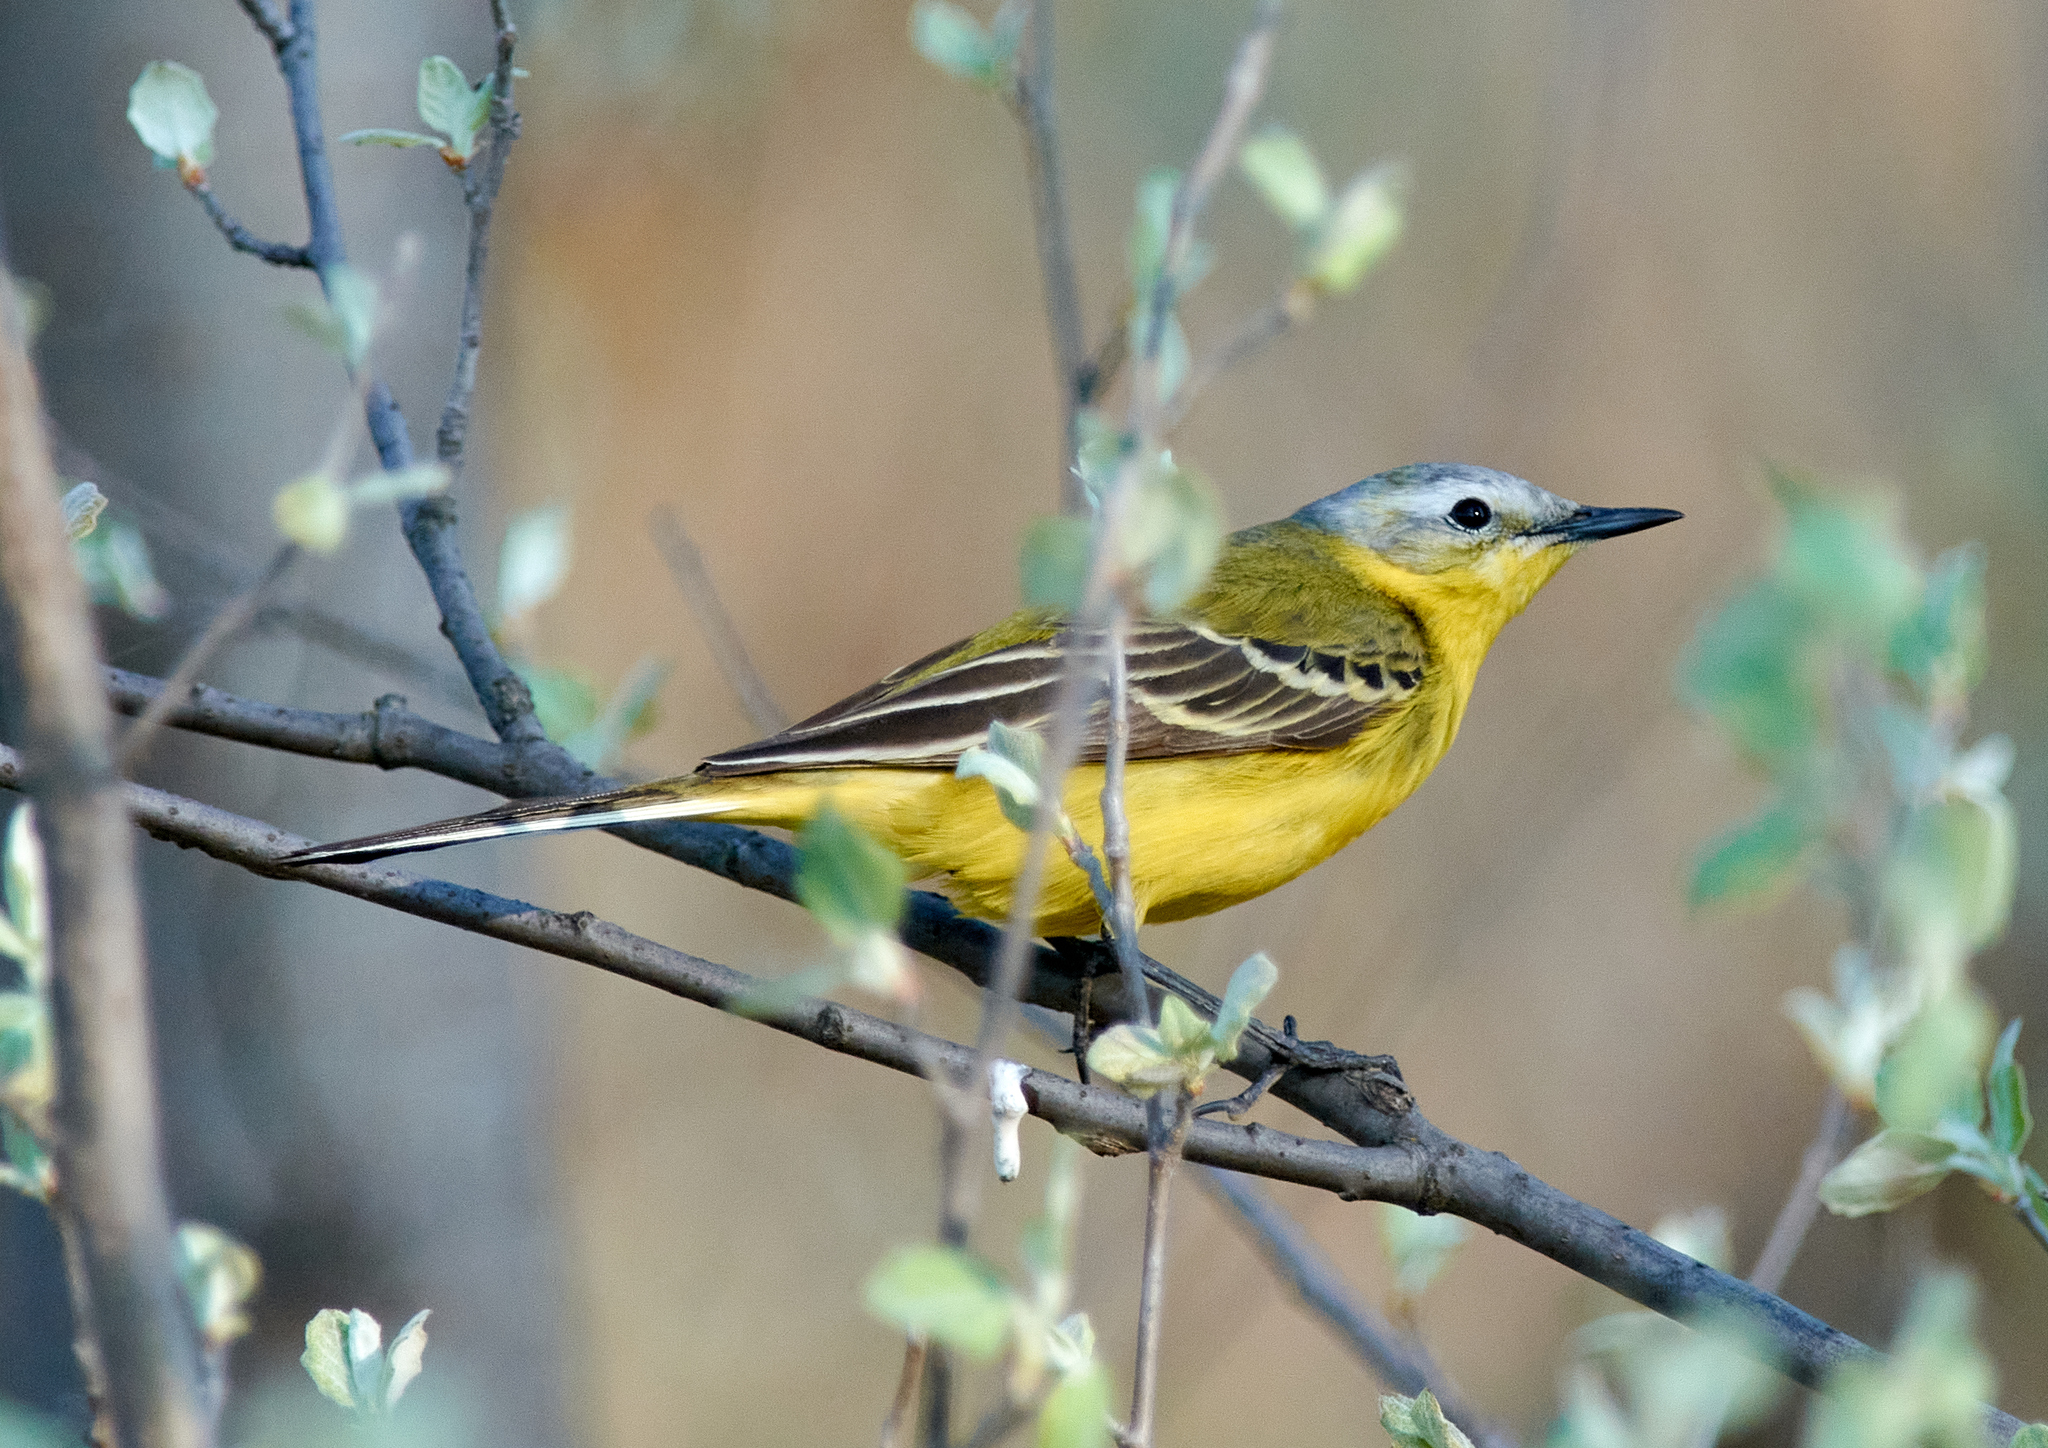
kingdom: Animalia
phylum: Chordata
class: Aves
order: Passeriformes
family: Motacillidae
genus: Motacilla
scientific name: Motacilla flava
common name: Western yellow wagtail
